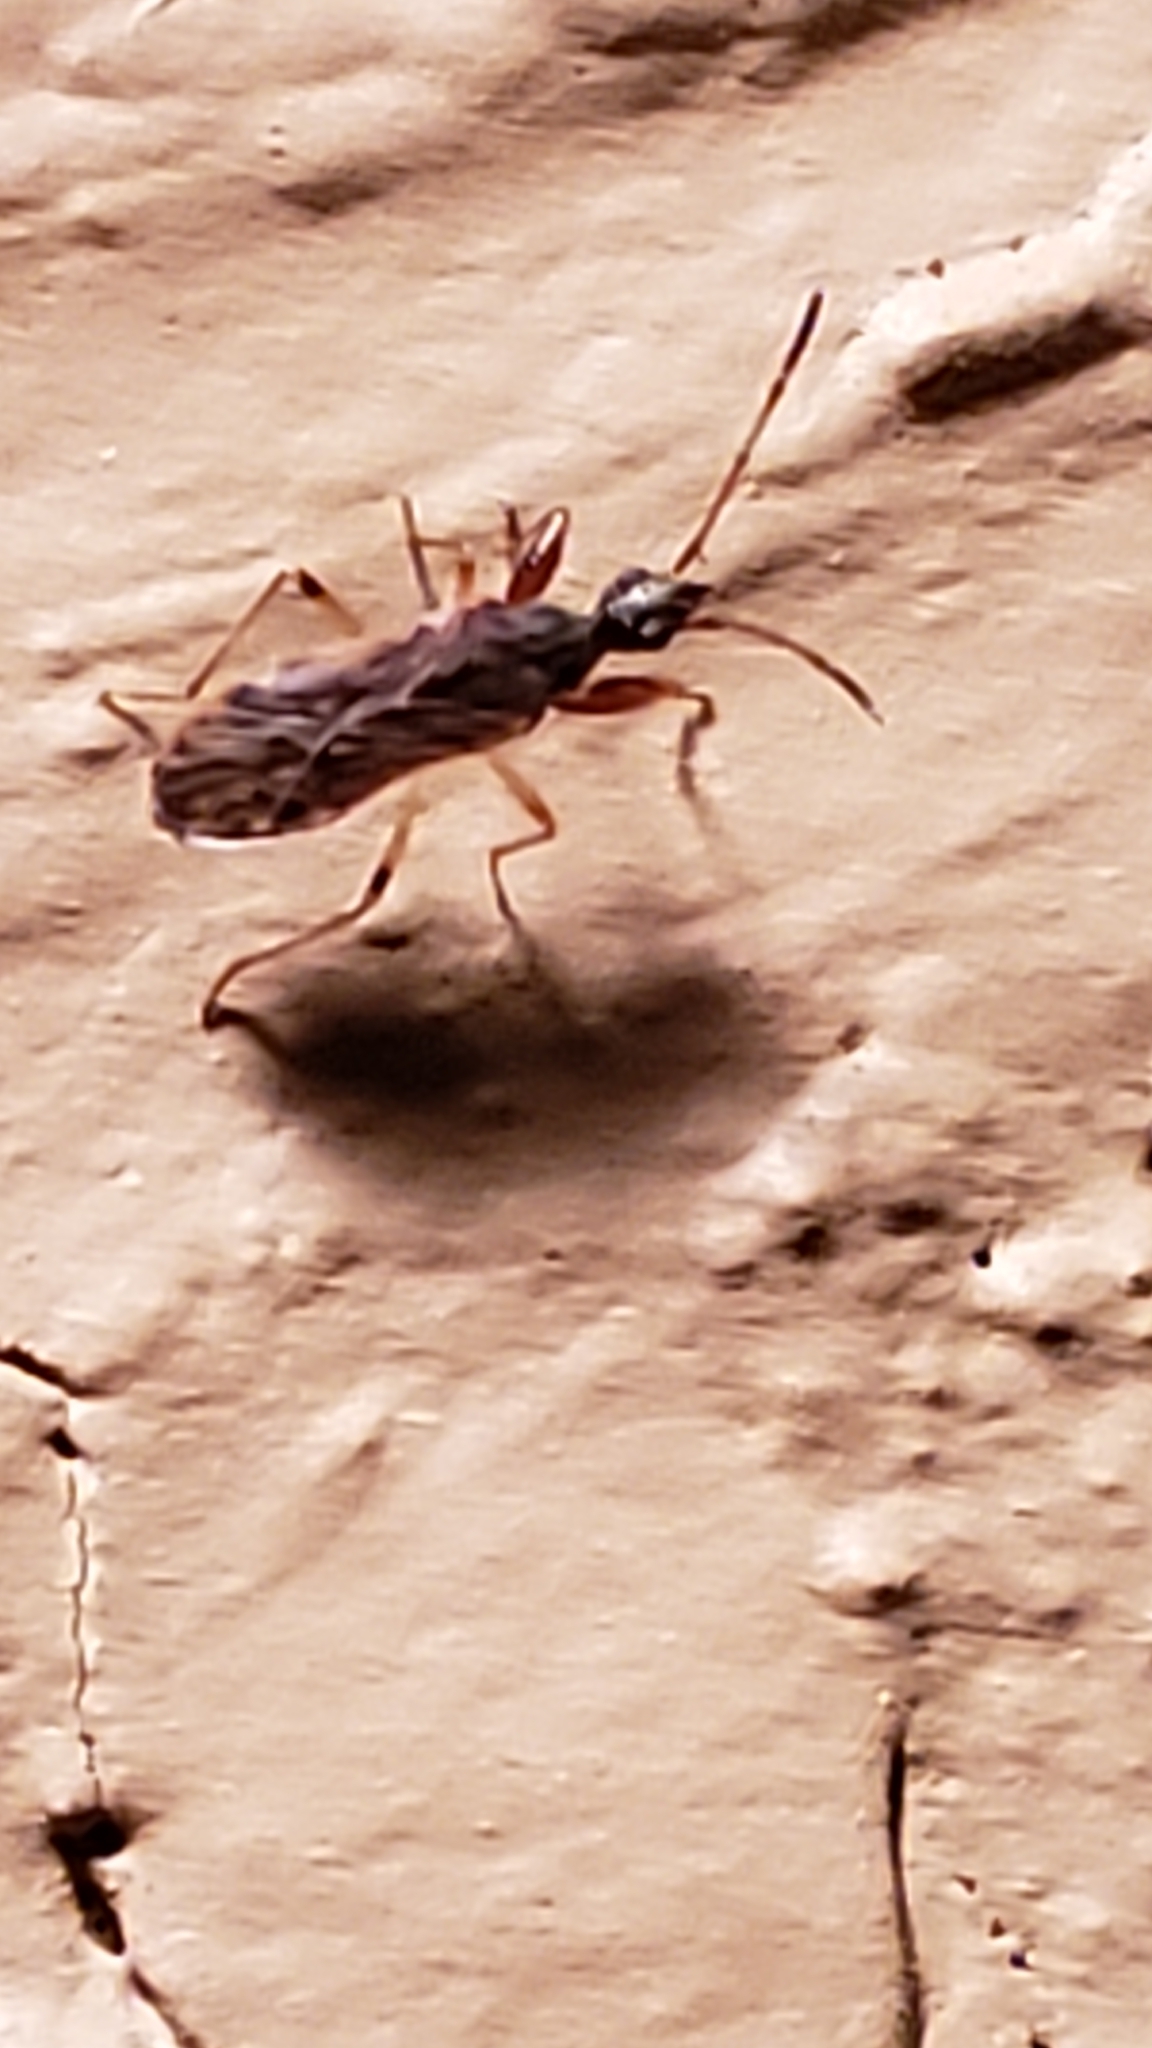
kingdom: Animalia
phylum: Arthropoda
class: Insecta
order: Hemiptera
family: Rhyparochromidae
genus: Heraeus
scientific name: Heraeus plebejus
